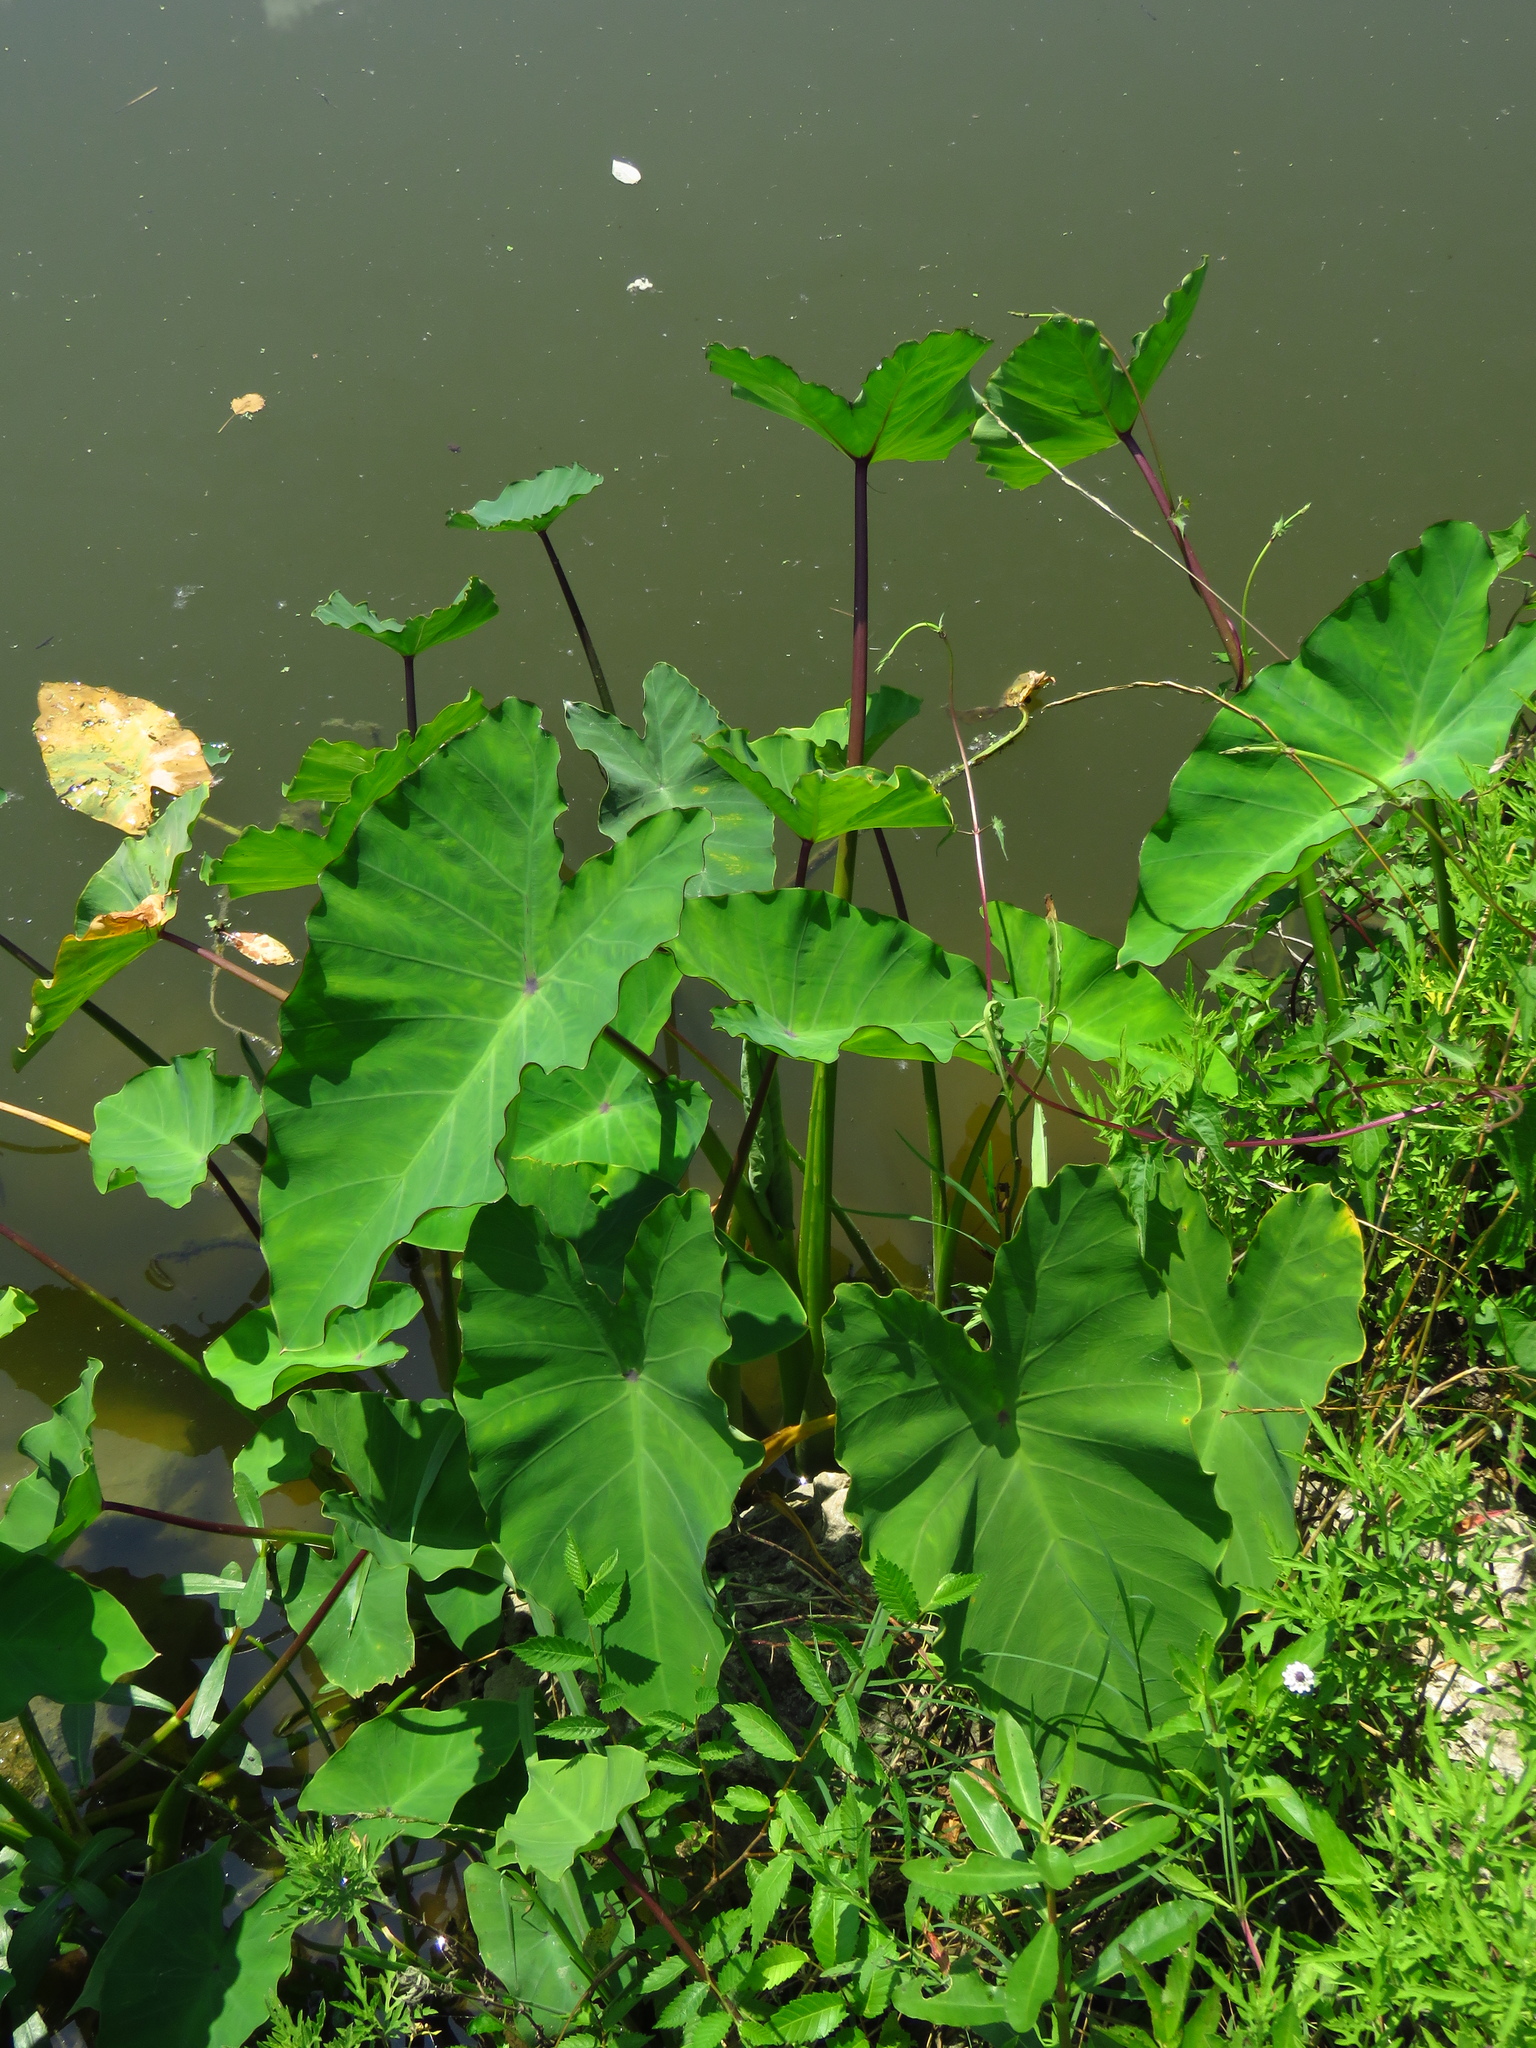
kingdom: Plantae
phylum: Tracheophyta
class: Liliopsida
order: Alismatales
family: Araceae
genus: Colocasia
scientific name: Colocasia esculenta
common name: Taro
